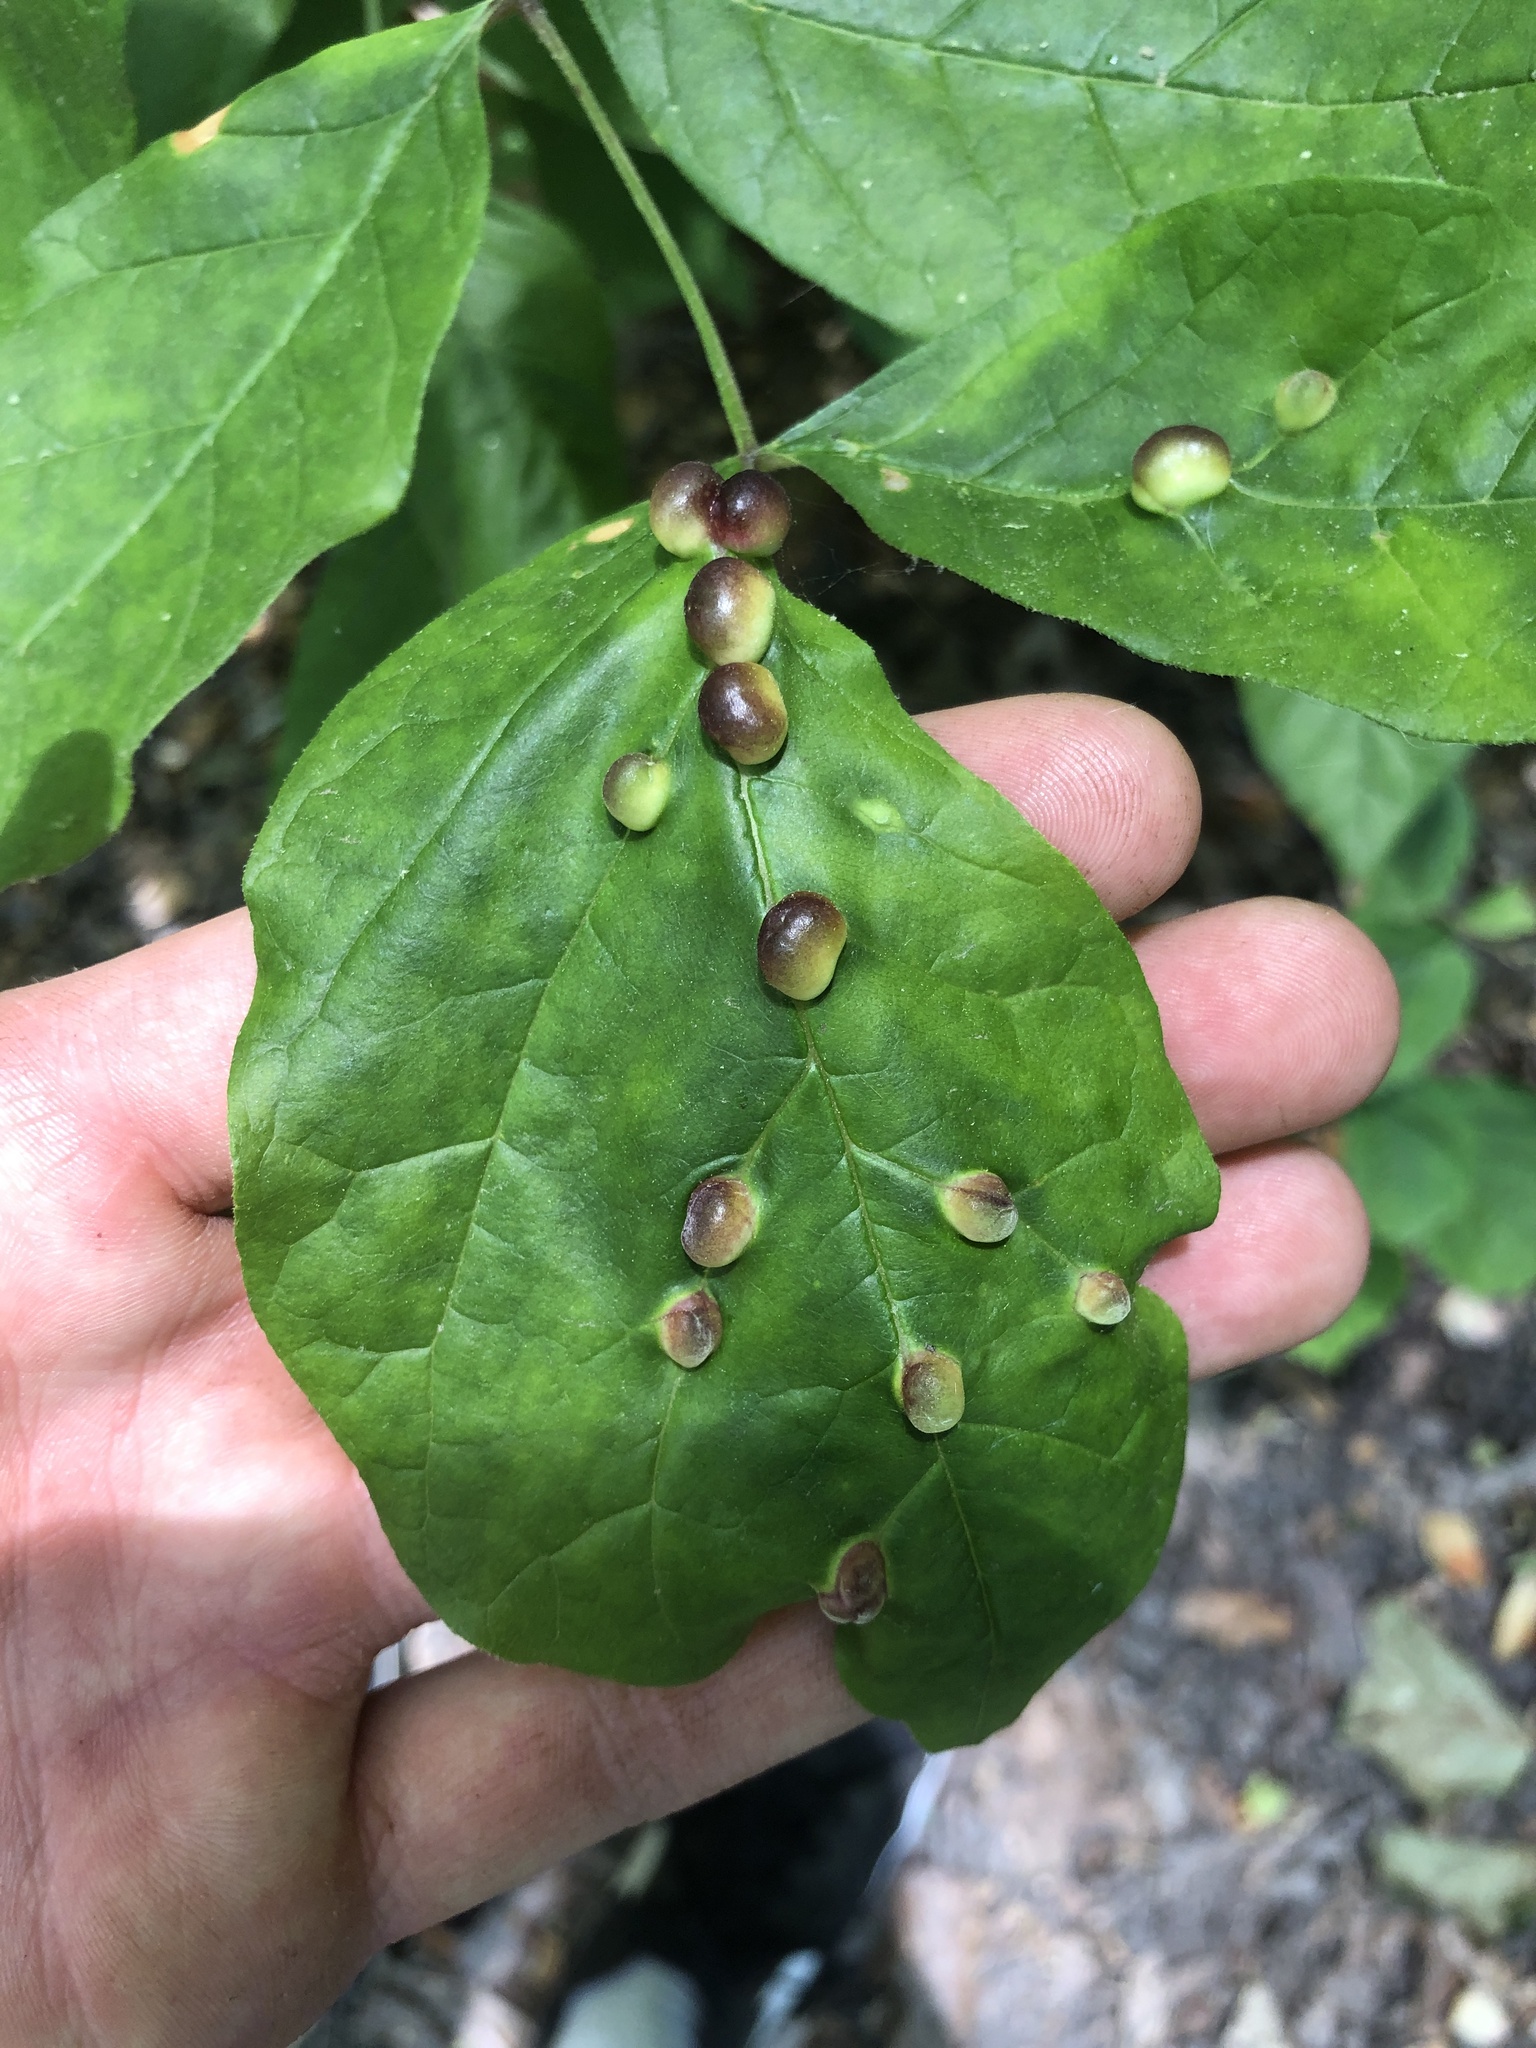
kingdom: Animalia
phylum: Arthropoda
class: Insecta
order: Diptera
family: Cecidomyiidae
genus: Dasineura
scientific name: Dasineura pellex
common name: Ash bullet gall midge
